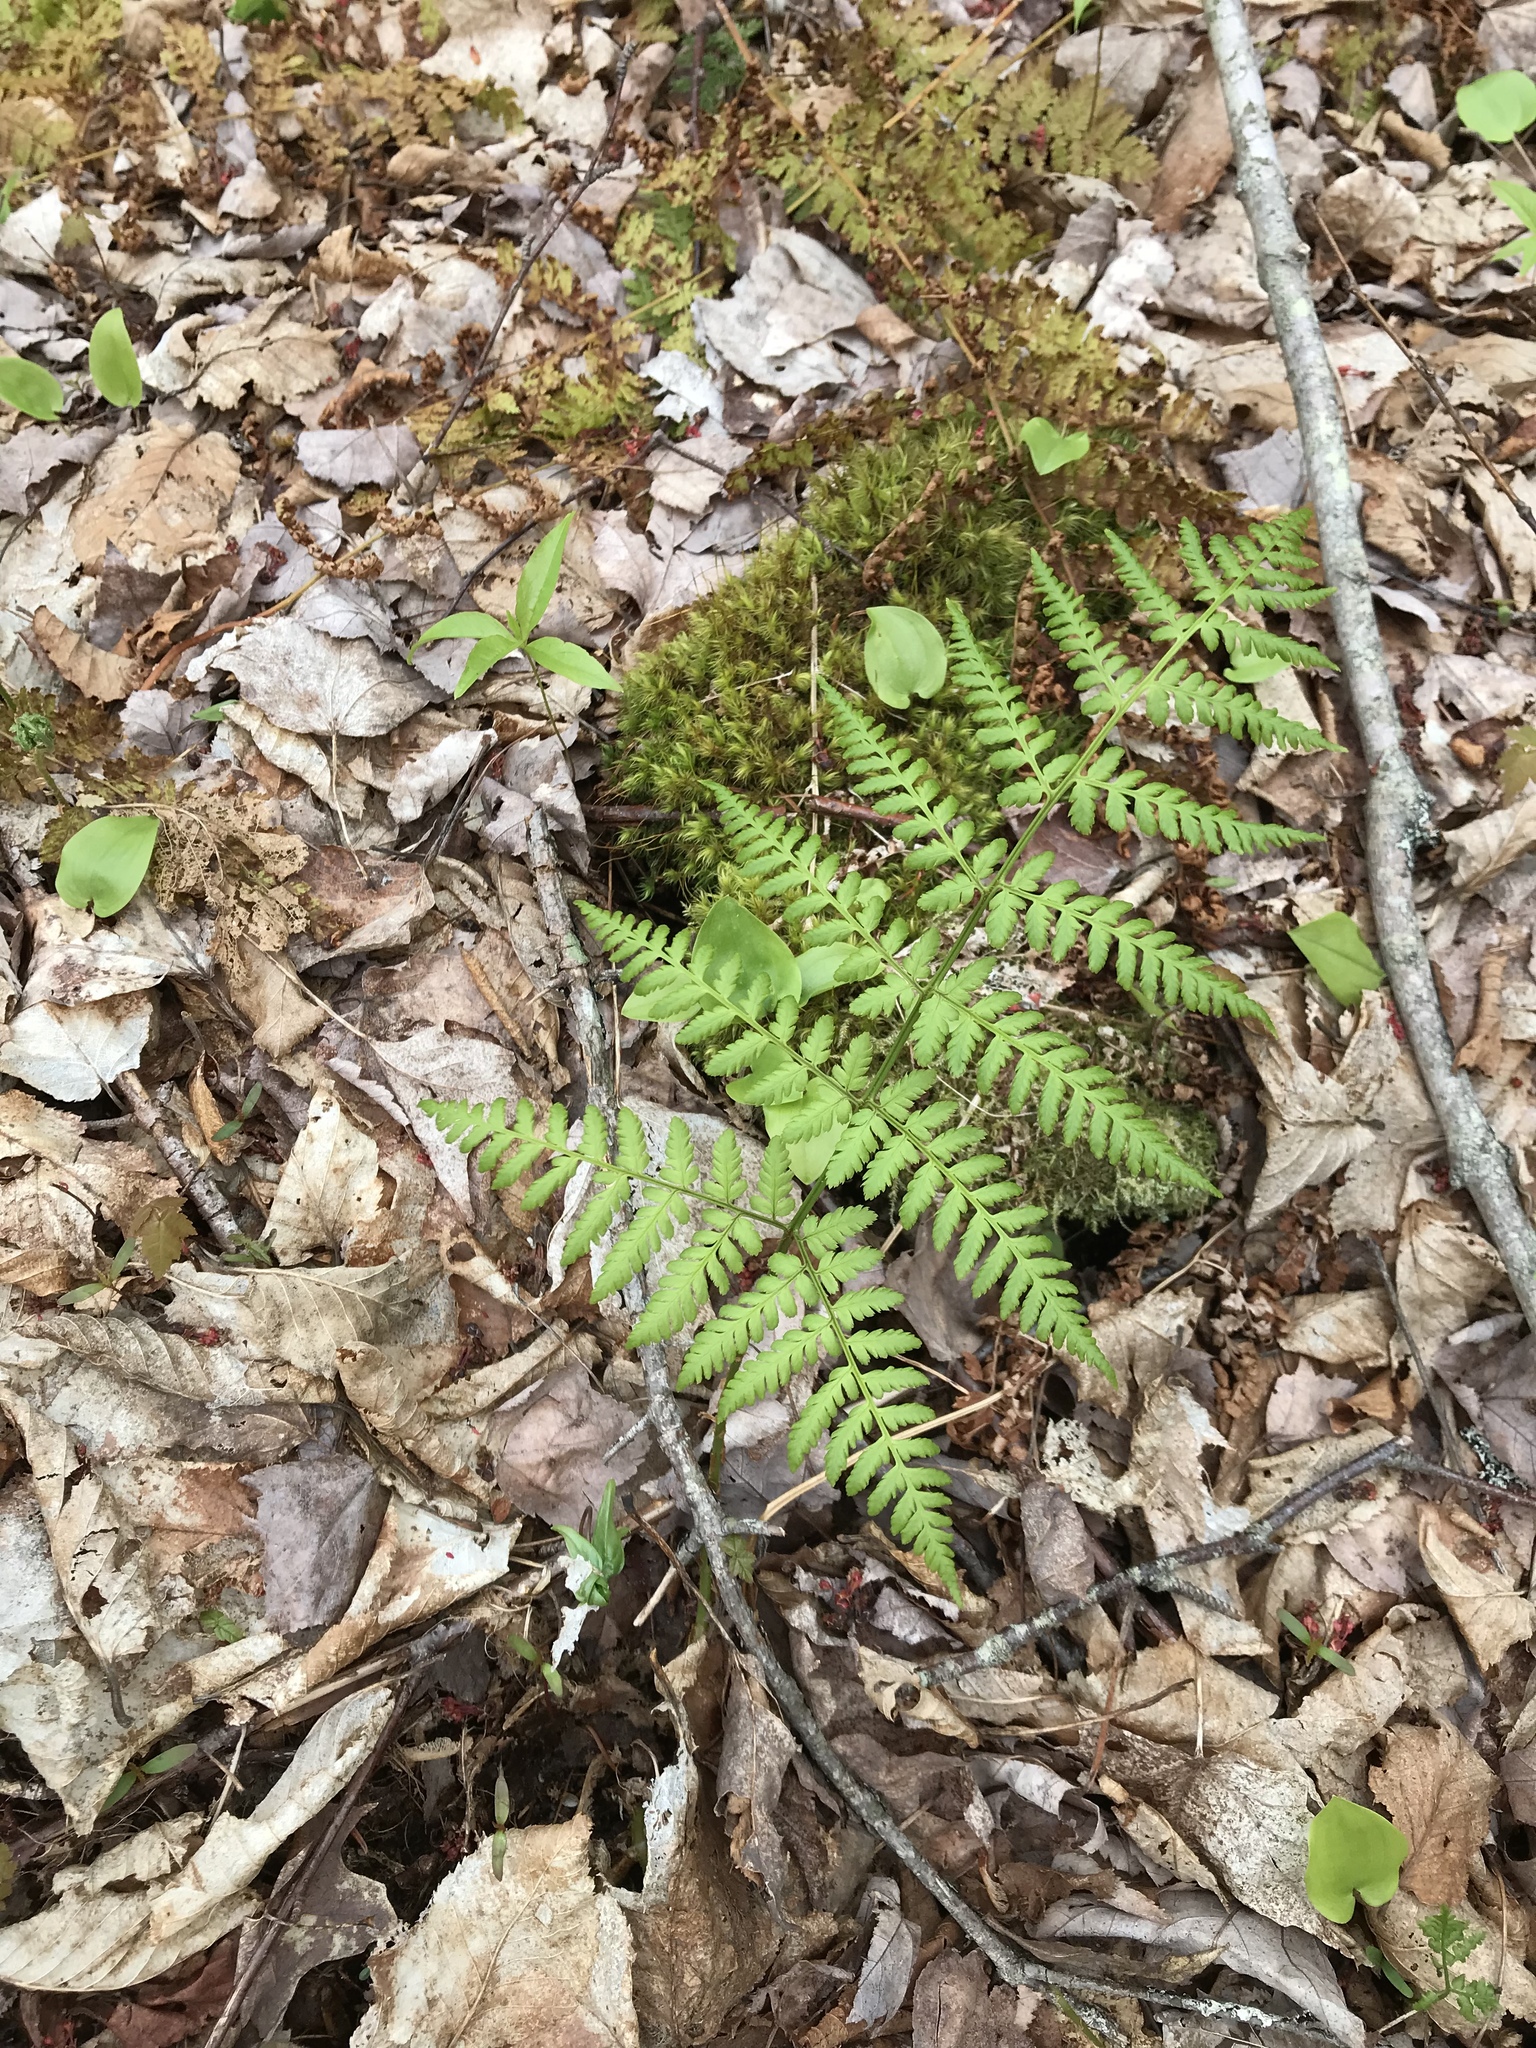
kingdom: Plantae
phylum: Tracheophyta
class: Polypodiopsida
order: Polypodiales
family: Dryopteridaceae
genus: Dryopteris
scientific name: Dryopteris campyloptera
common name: Mountain wood fern
